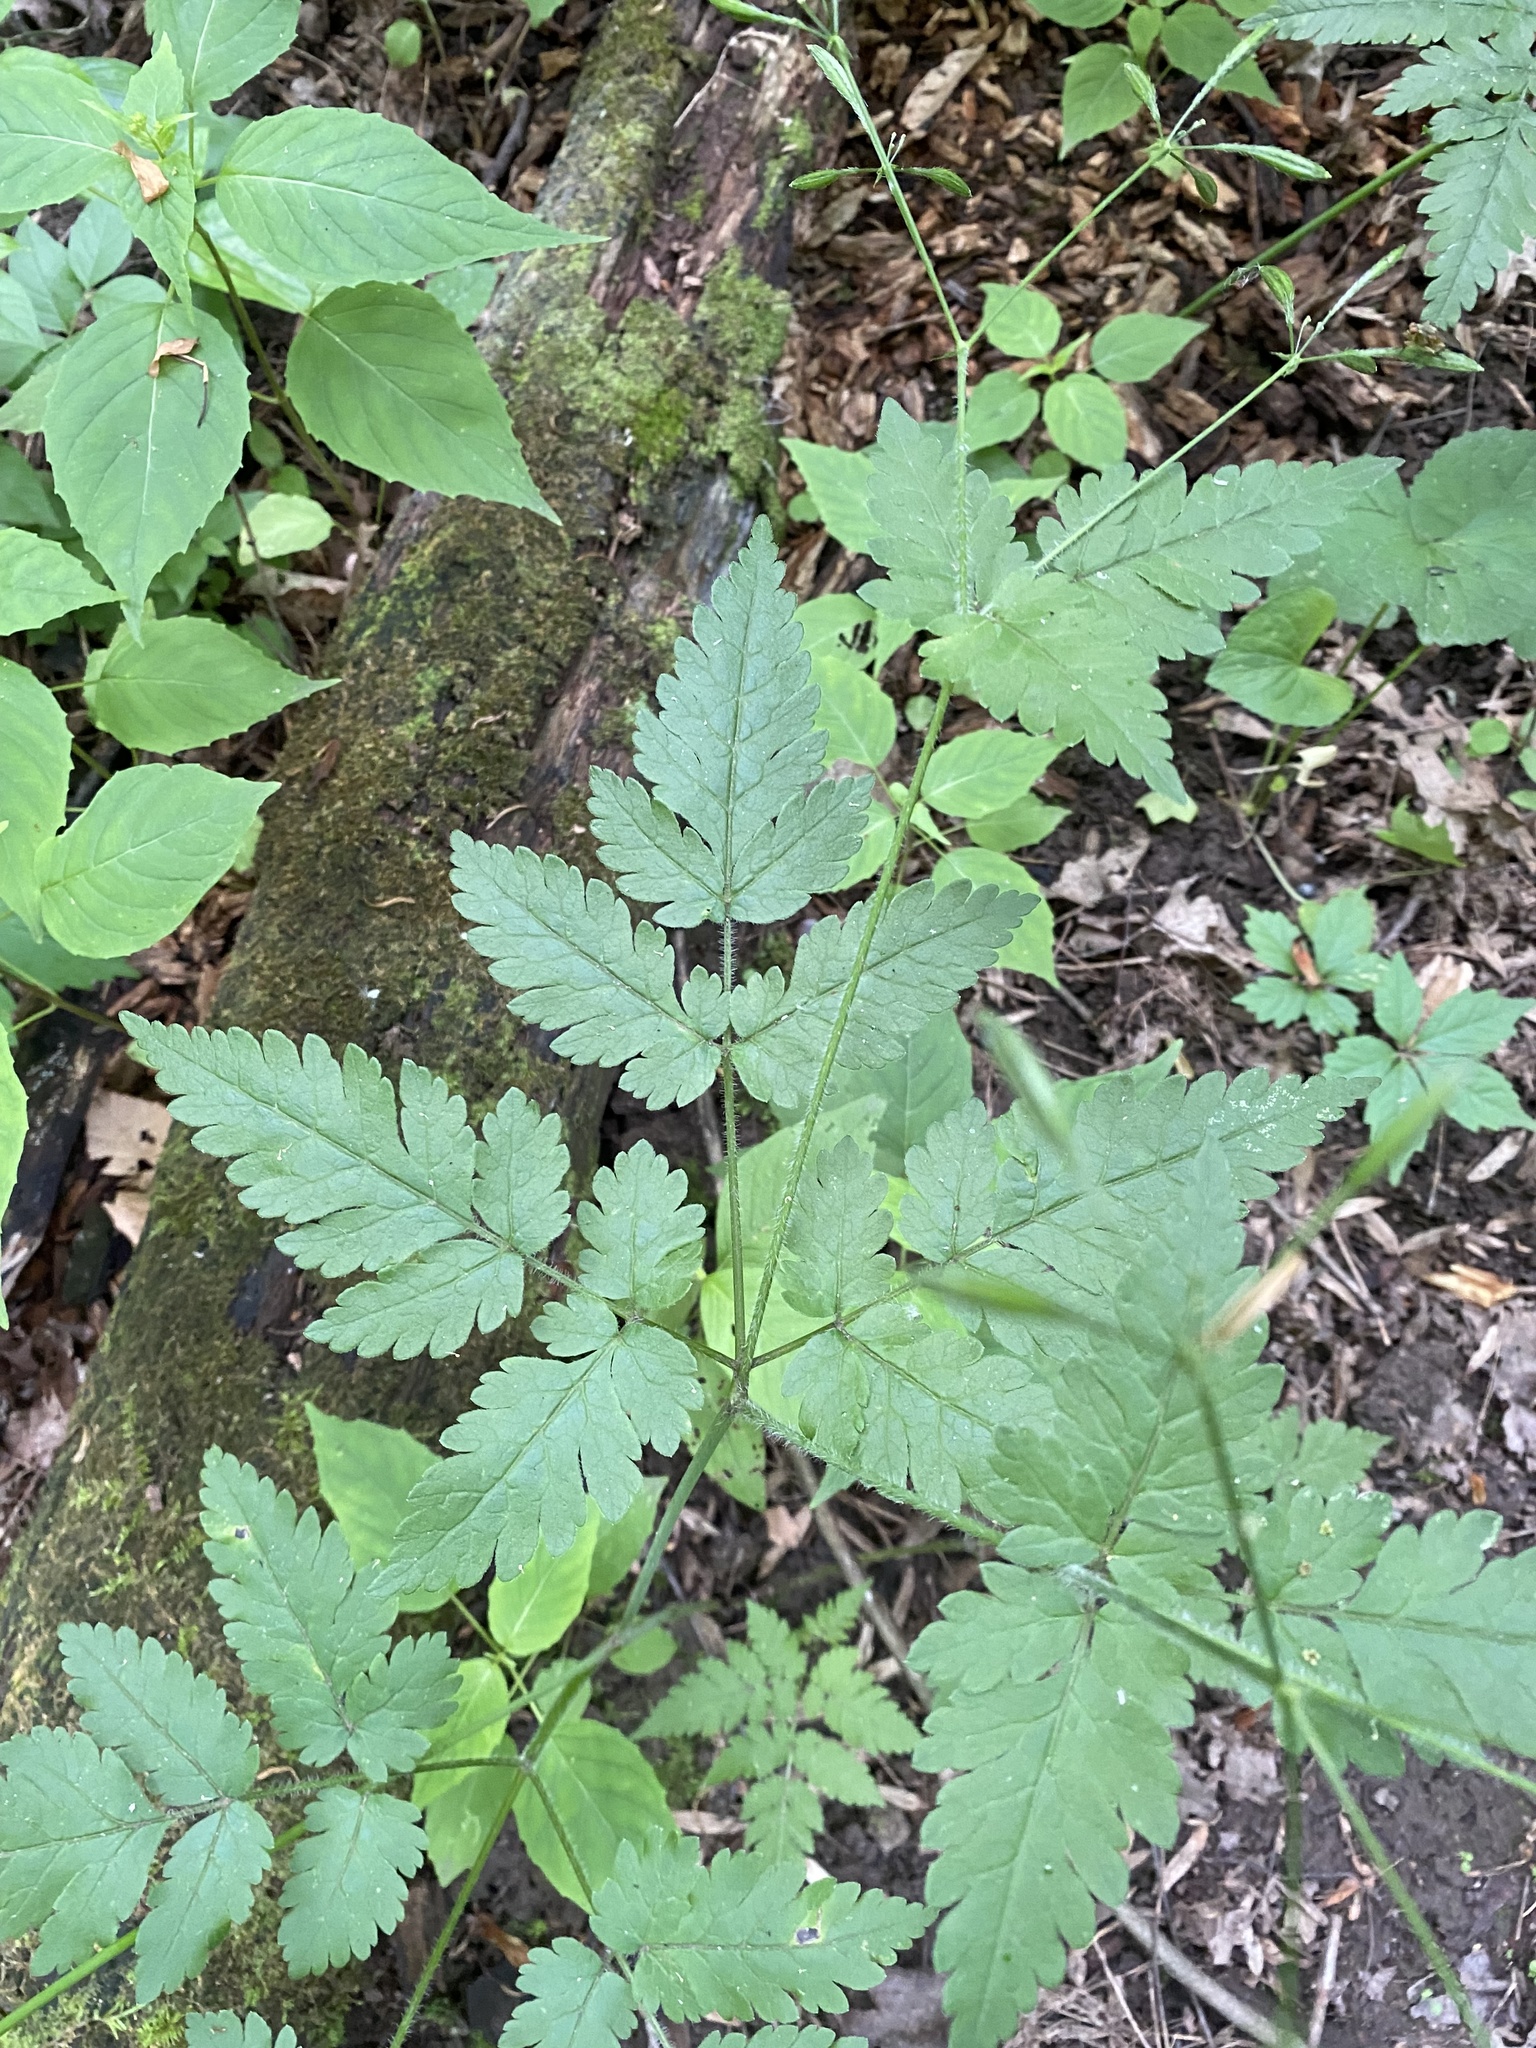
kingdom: Plantae
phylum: Tracheophyta
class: Magnoliopsida
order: Apiales
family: Apiaceae
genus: Osmorhiza
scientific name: Osmorhiza claytonii
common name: Hairy sweet cicely
